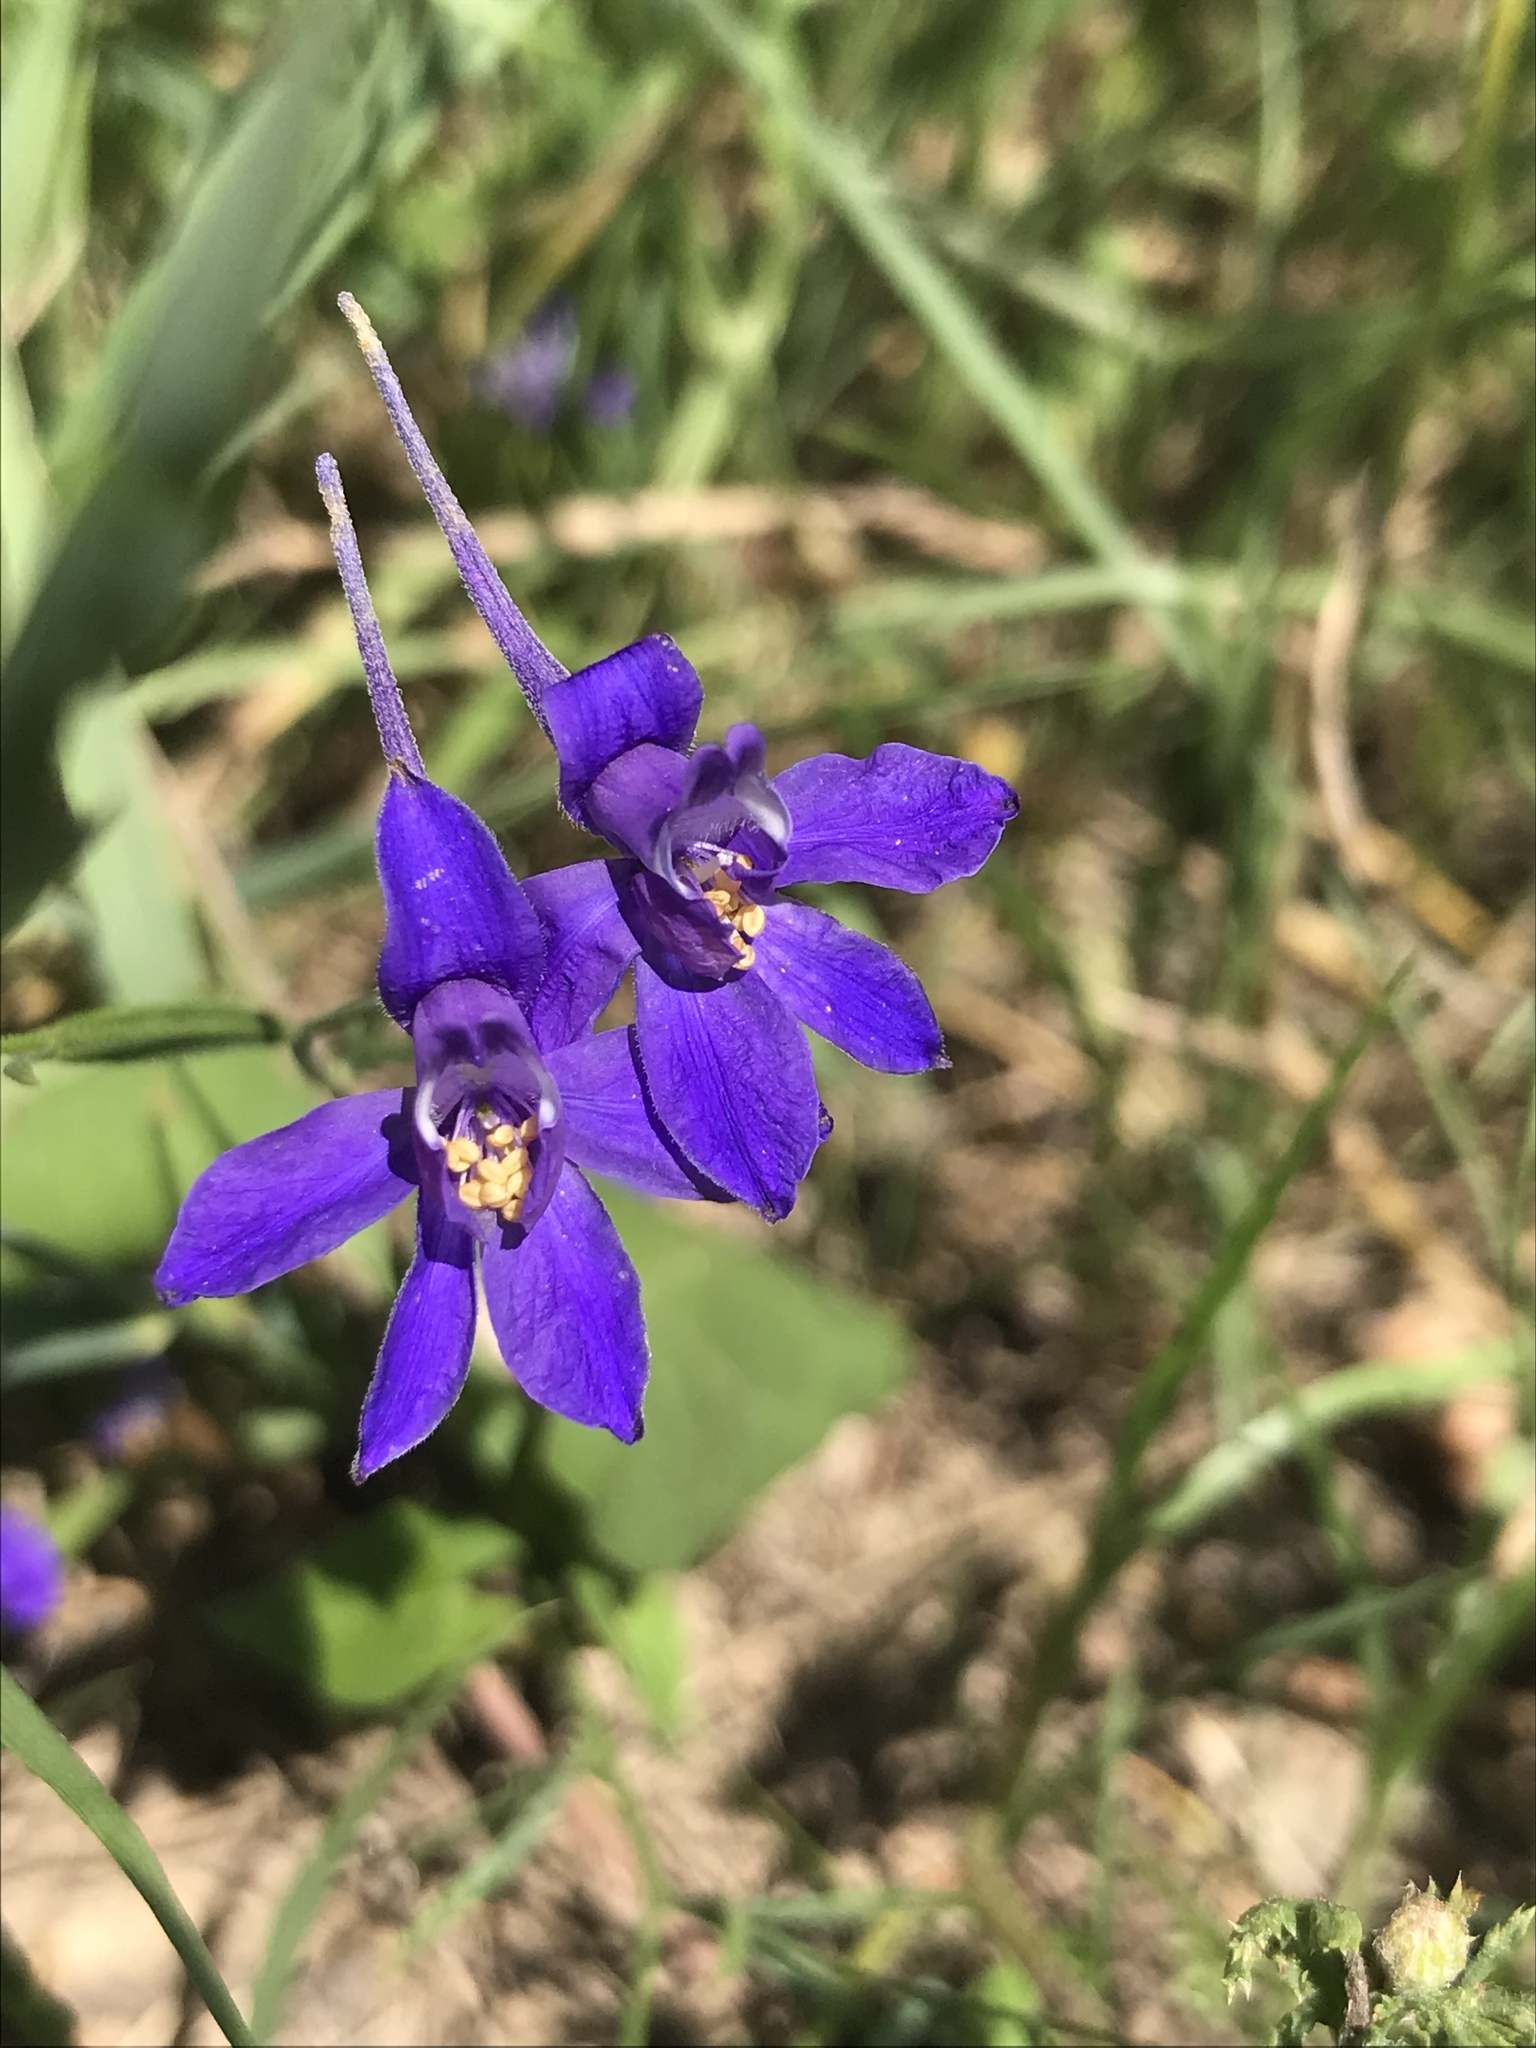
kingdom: Plantae
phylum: Tracheophyta
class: Magnoliopsida
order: Ranunculales
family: Ranunculaceae
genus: Delphinium
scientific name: Delphinium consolida
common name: Branching larkspur
